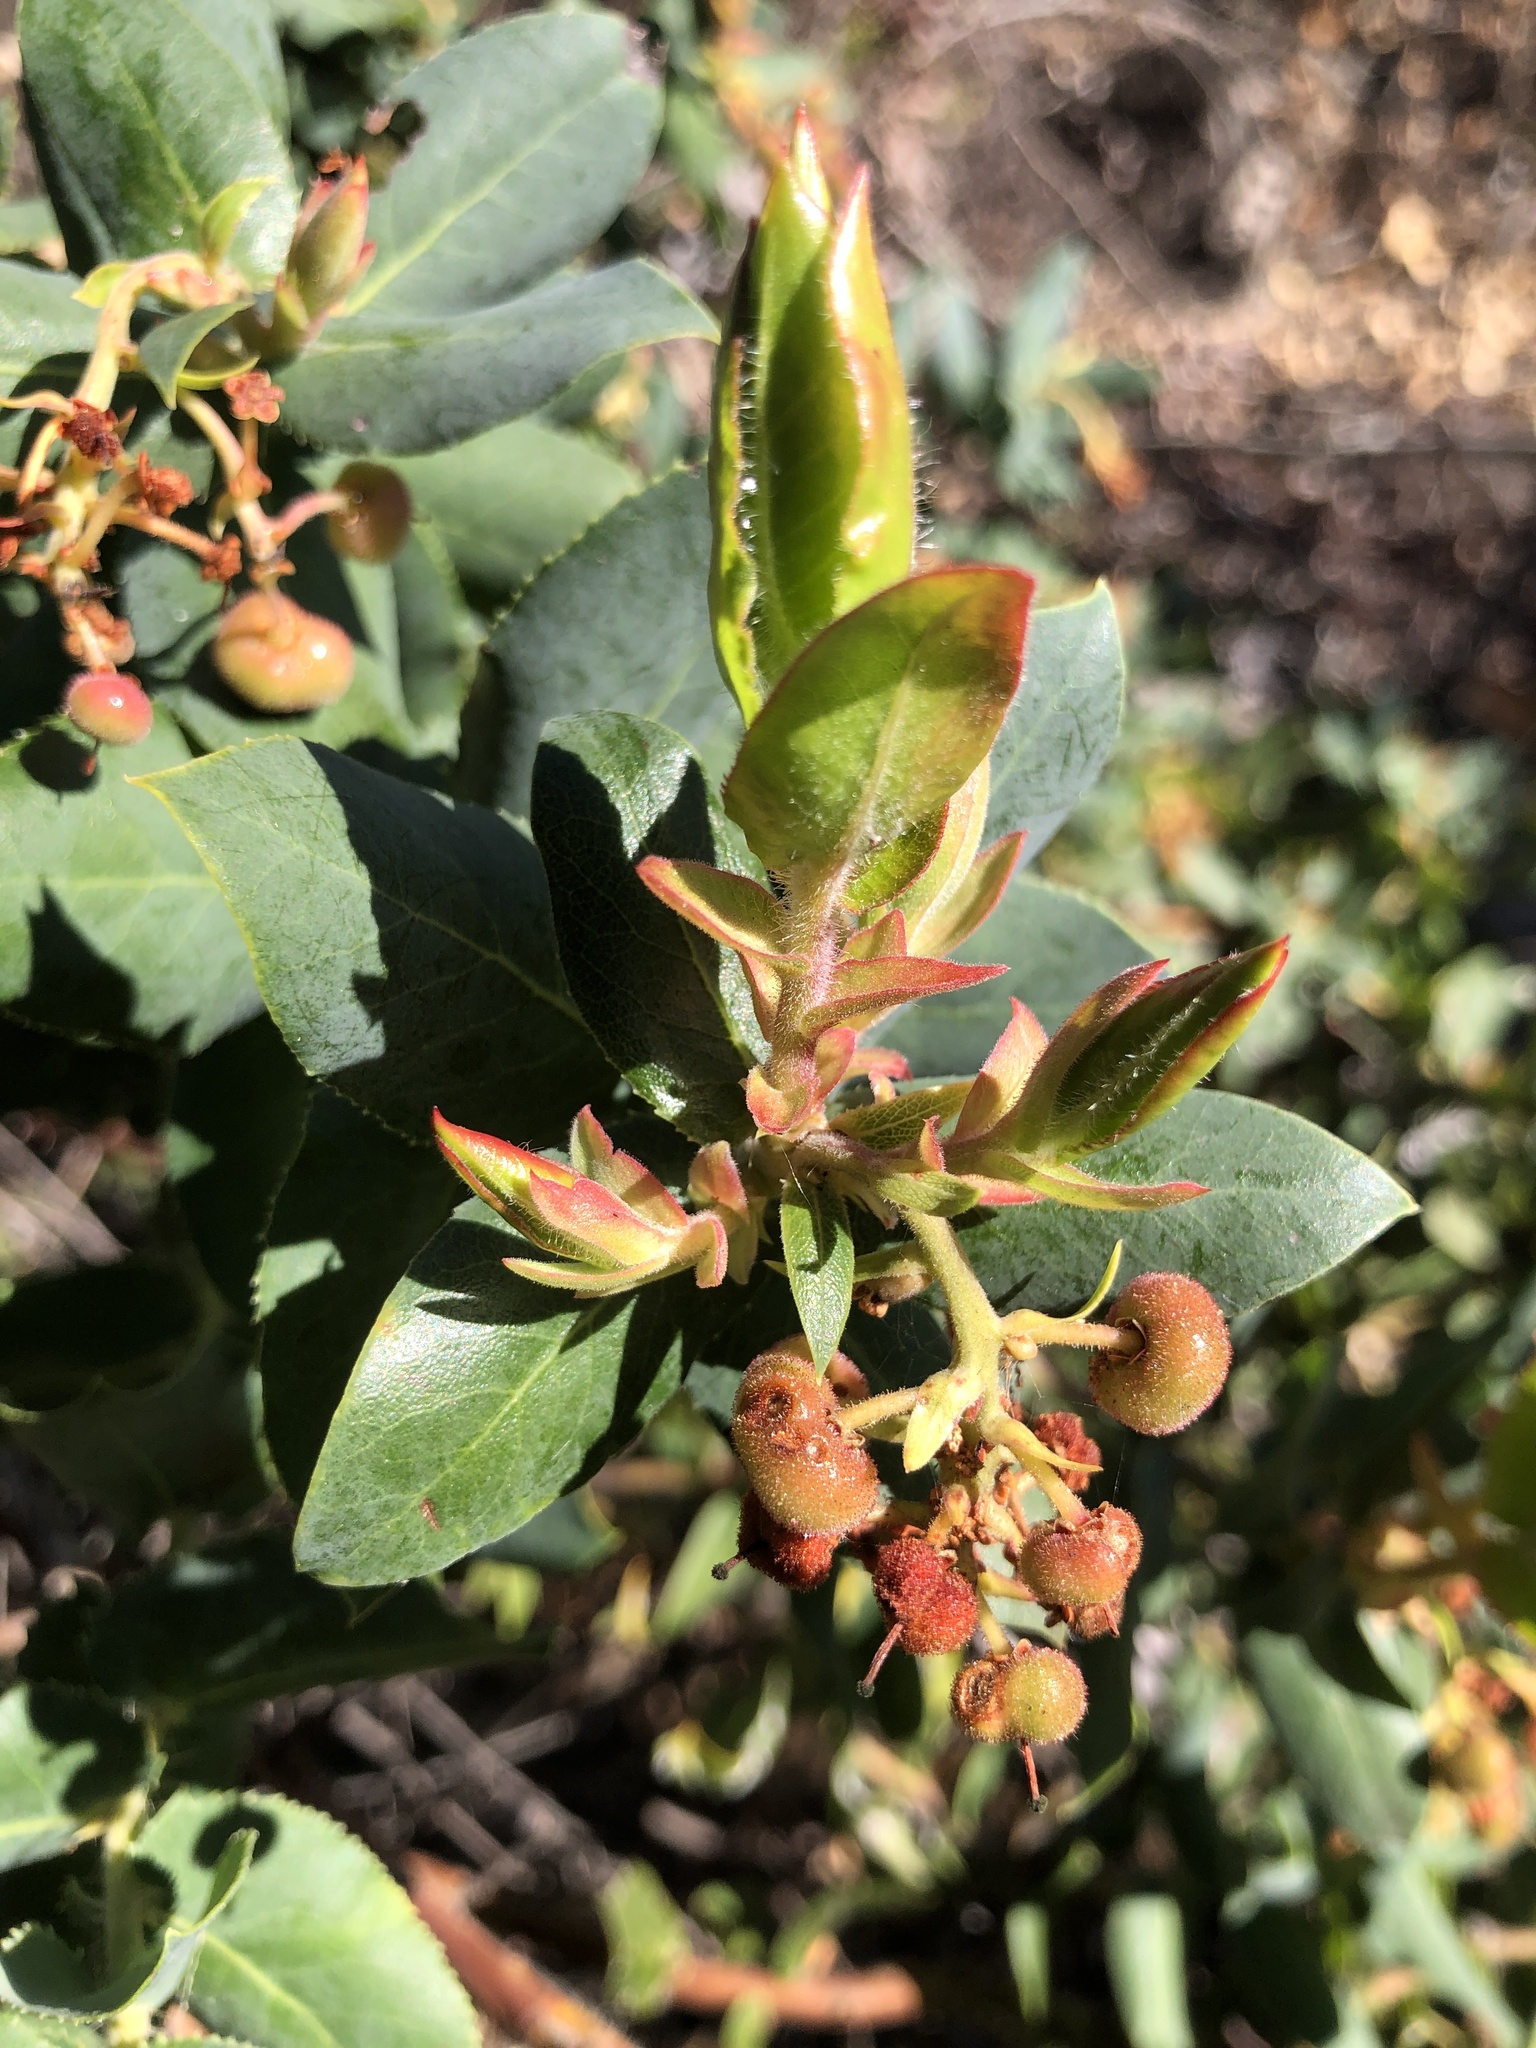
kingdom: Plantae
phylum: Tracheophyta
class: Magnoliopsida
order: Ericales
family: Ericaceae
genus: Arctostaphylos
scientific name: Arctostaphylos andersonii
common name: Santa cruz manzanita
